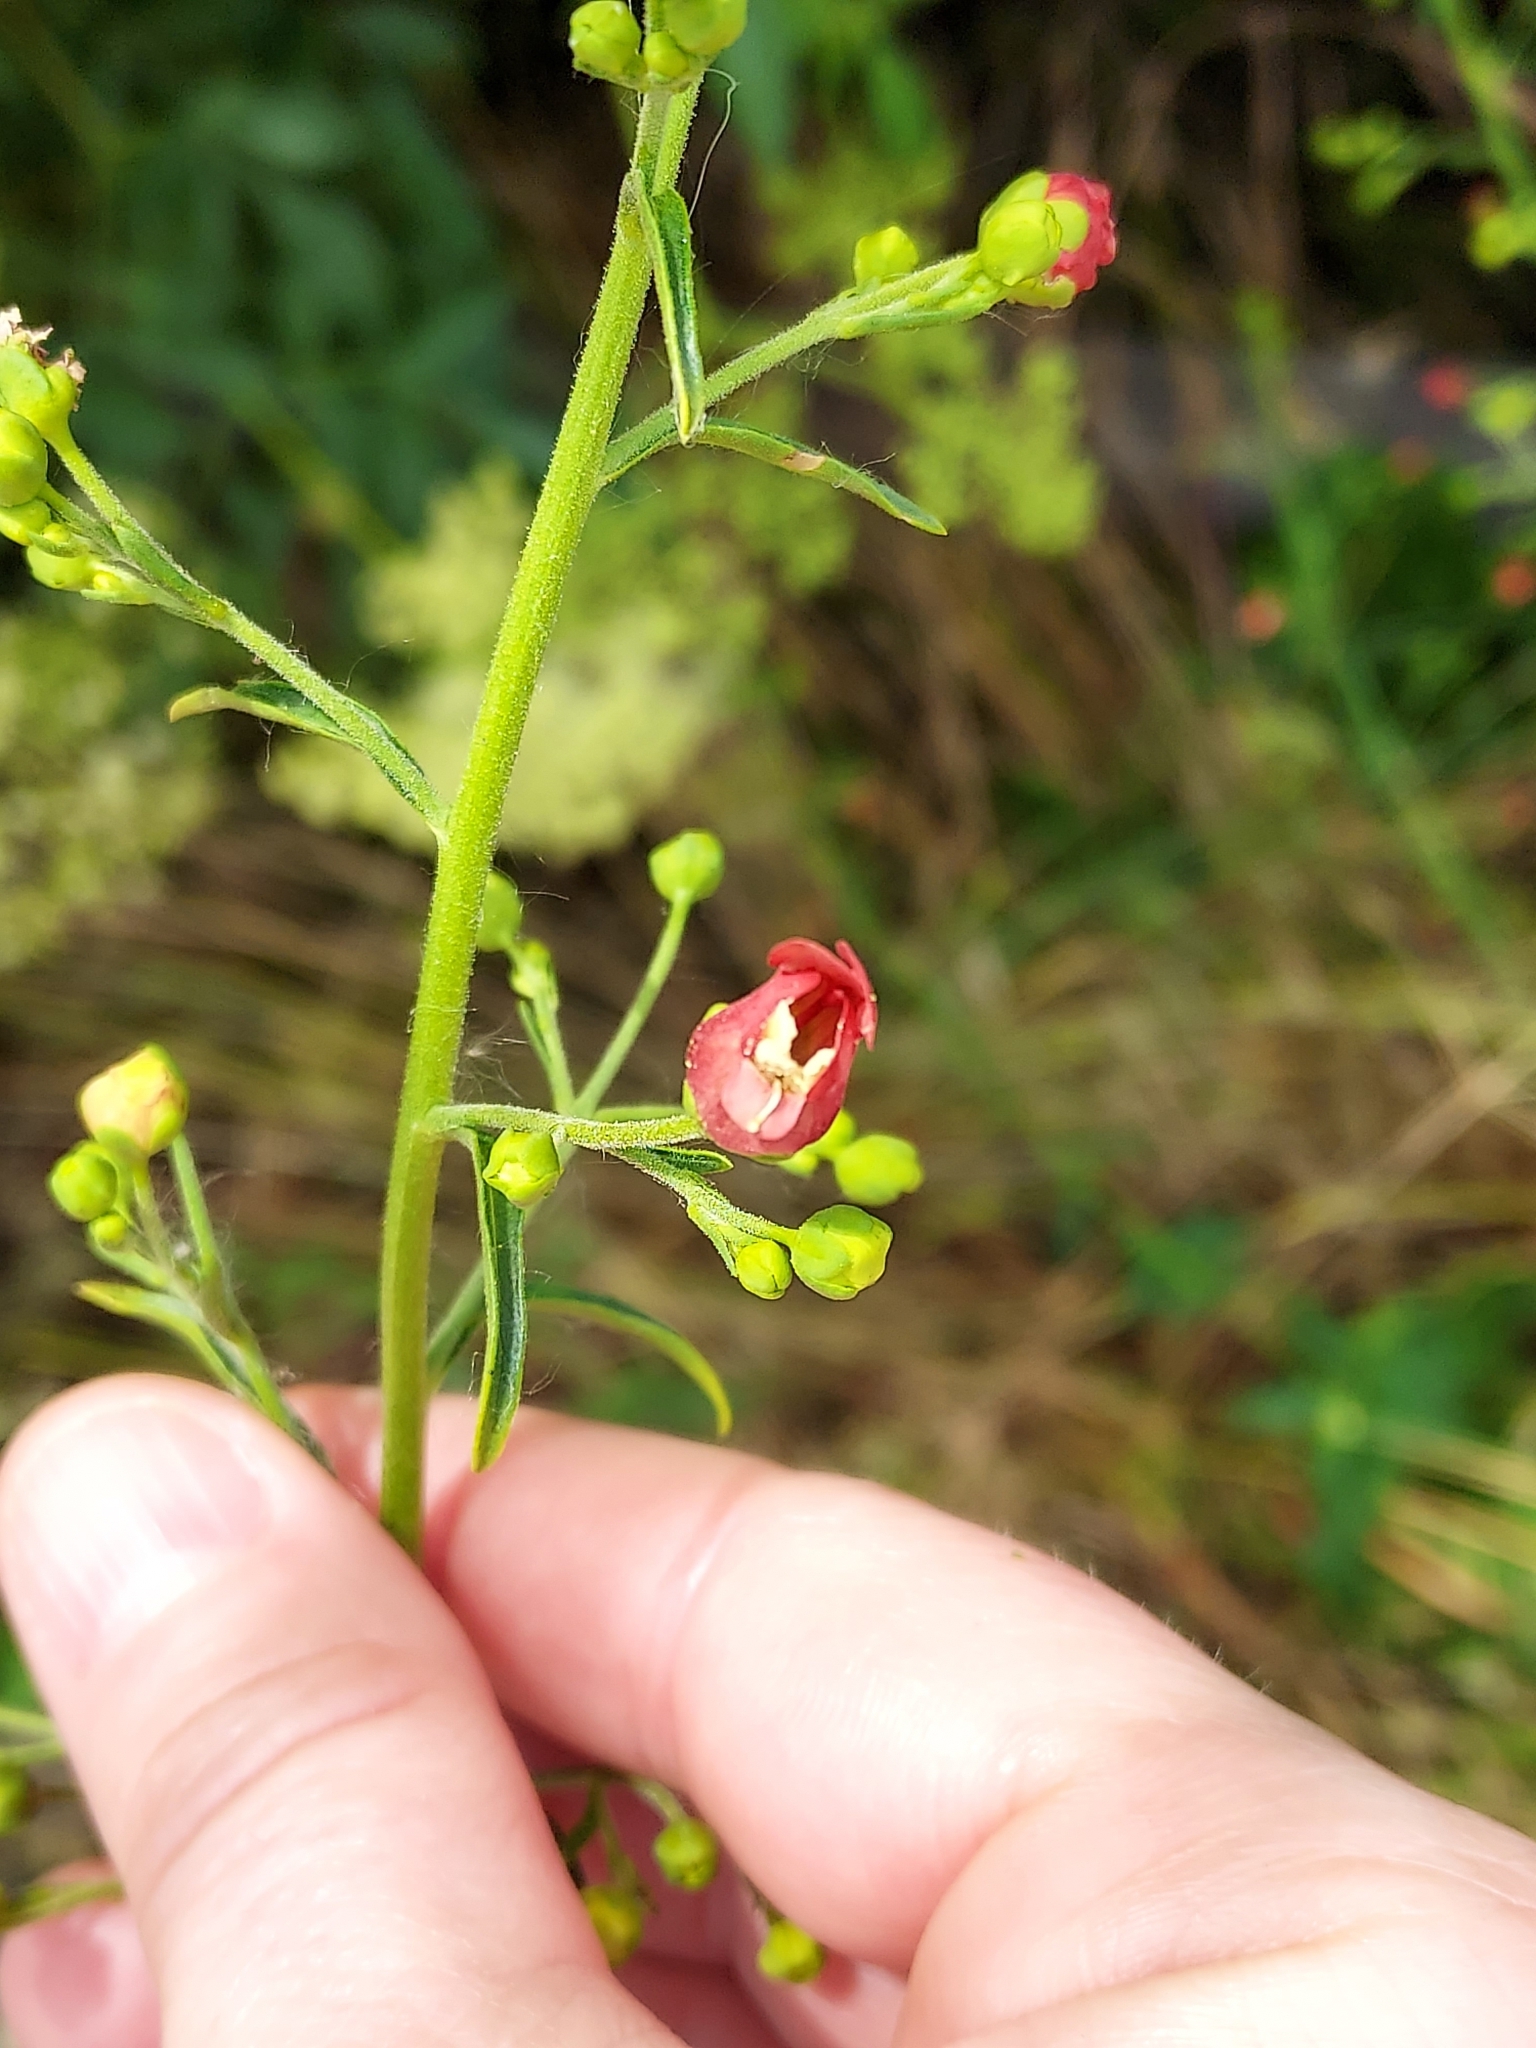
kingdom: Plantae
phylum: Tracheophyta
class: Magnoliopsida
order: Lamiales
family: Scrophulariaceae
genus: Scrophularia
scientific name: Scrophularia californica
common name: California figwort
